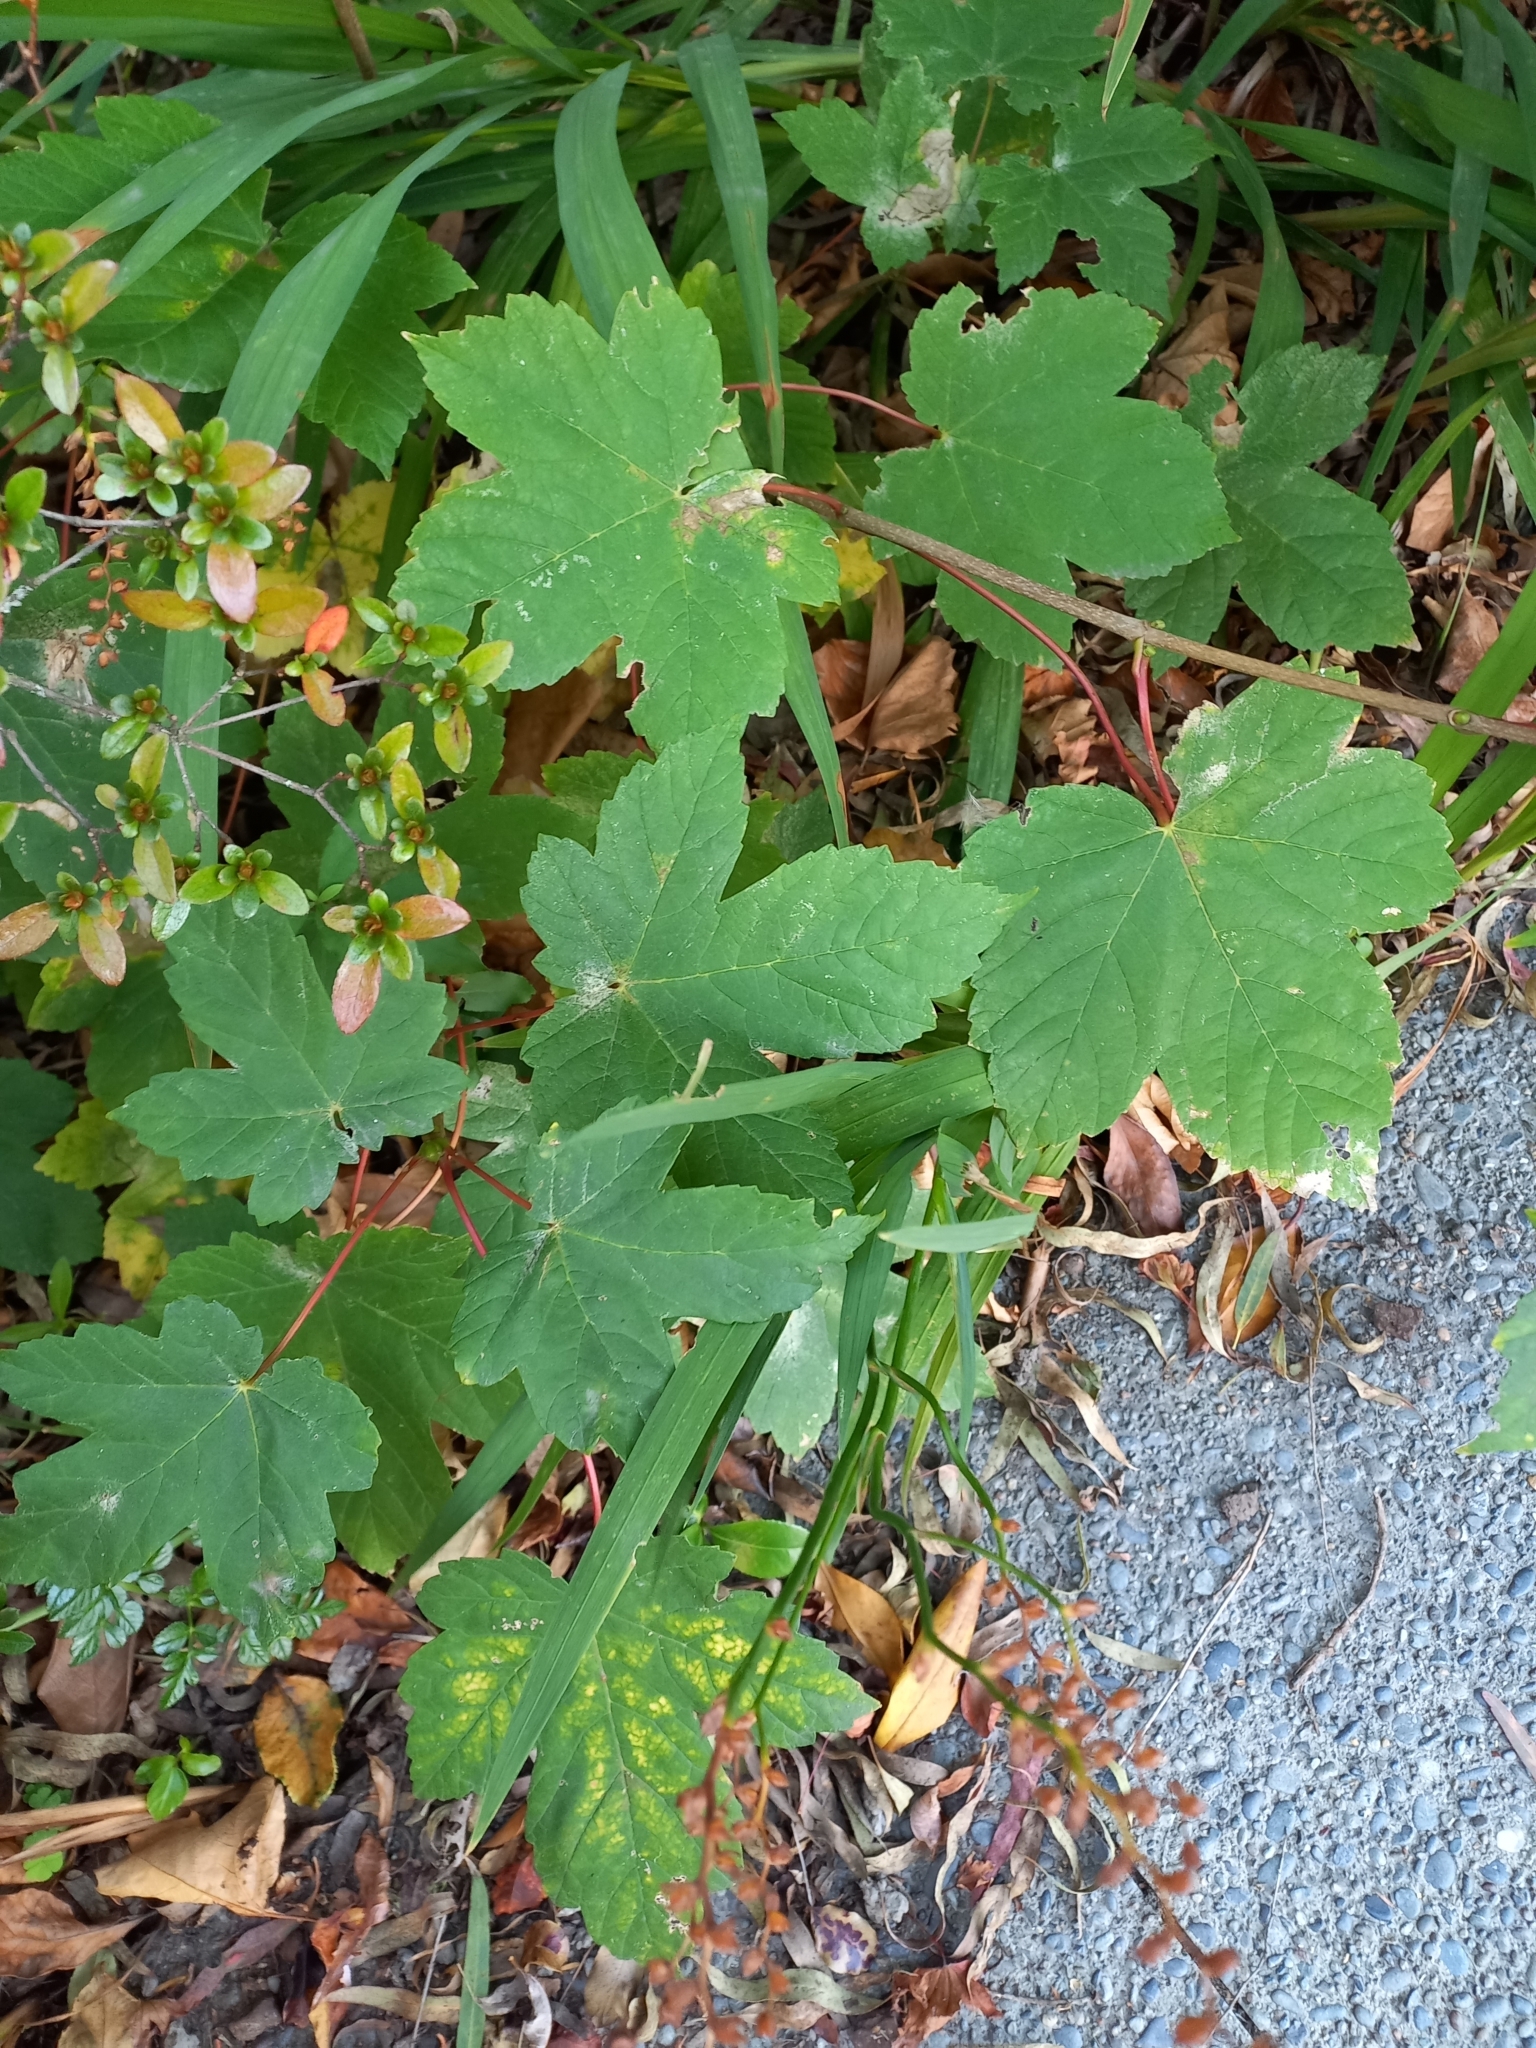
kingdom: Plantae
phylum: Tracheophyta
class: Magnoliopsida
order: Sapindales
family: Sapindaceae
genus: Acer
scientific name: Acer pseudoplatanus
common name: Sycamore
